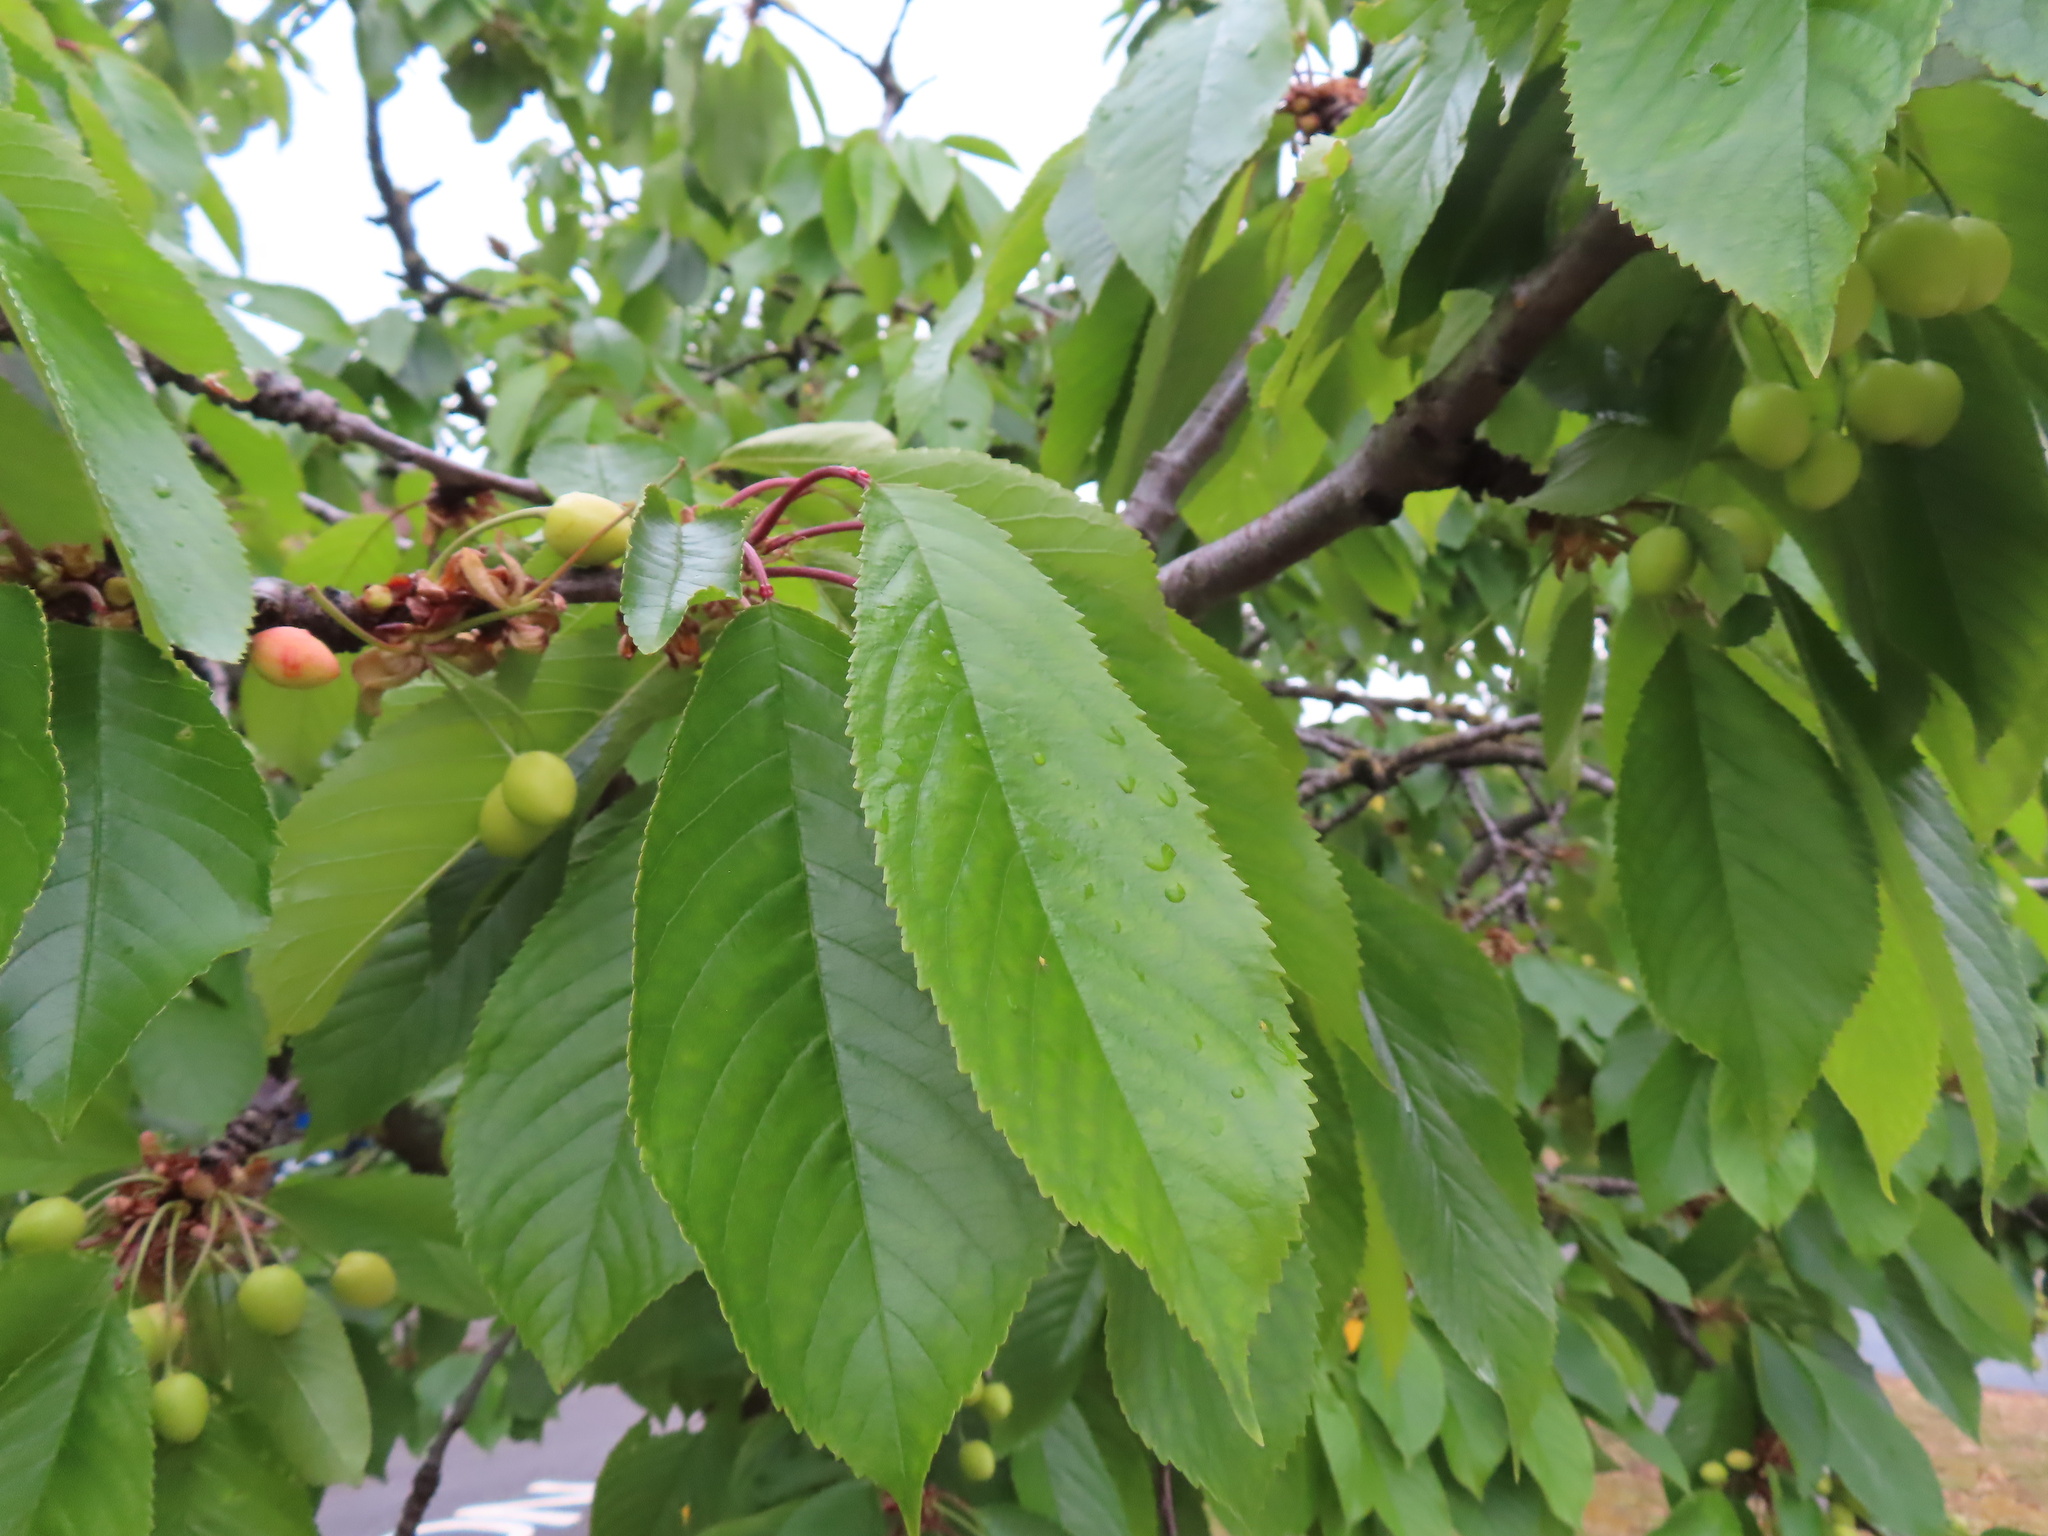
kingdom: Plantae
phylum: Tracheophyta
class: Magnoliopsida
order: Rosales
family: Rosaceae
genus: Prunus
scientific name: Prunus avium
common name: Sweet cherry
